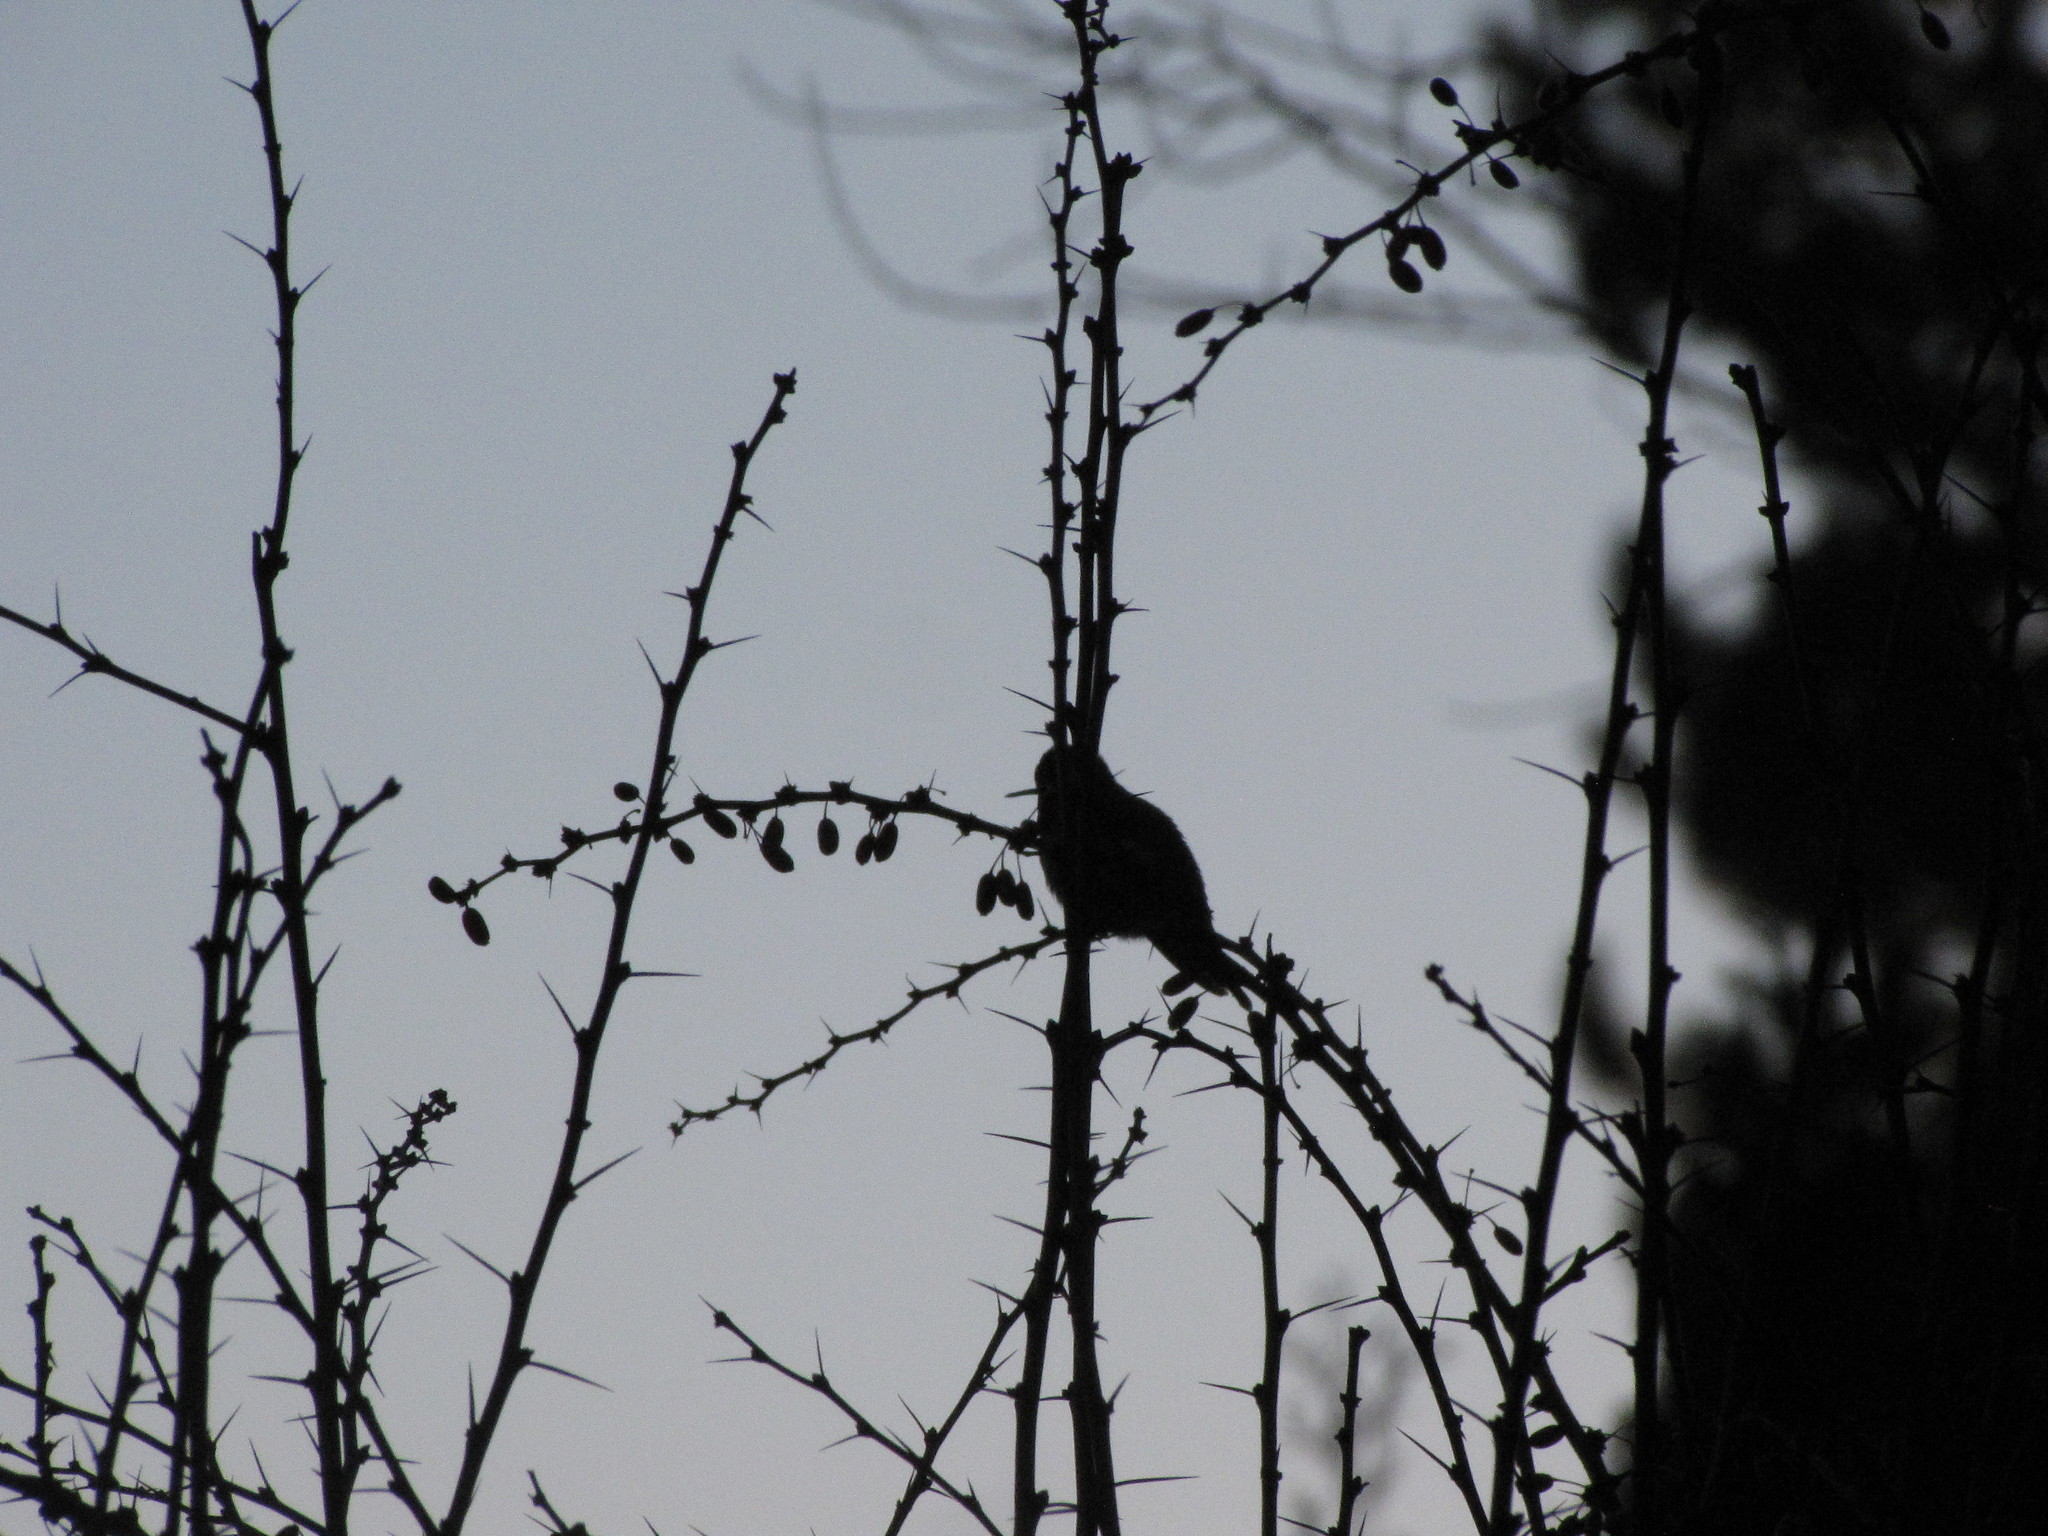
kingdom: Animalia
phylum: Chordata
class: Aves
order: Apodiformes
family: Trochilidae
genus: Calypte
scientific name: Calypte anna
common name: Anna's hummingbird
